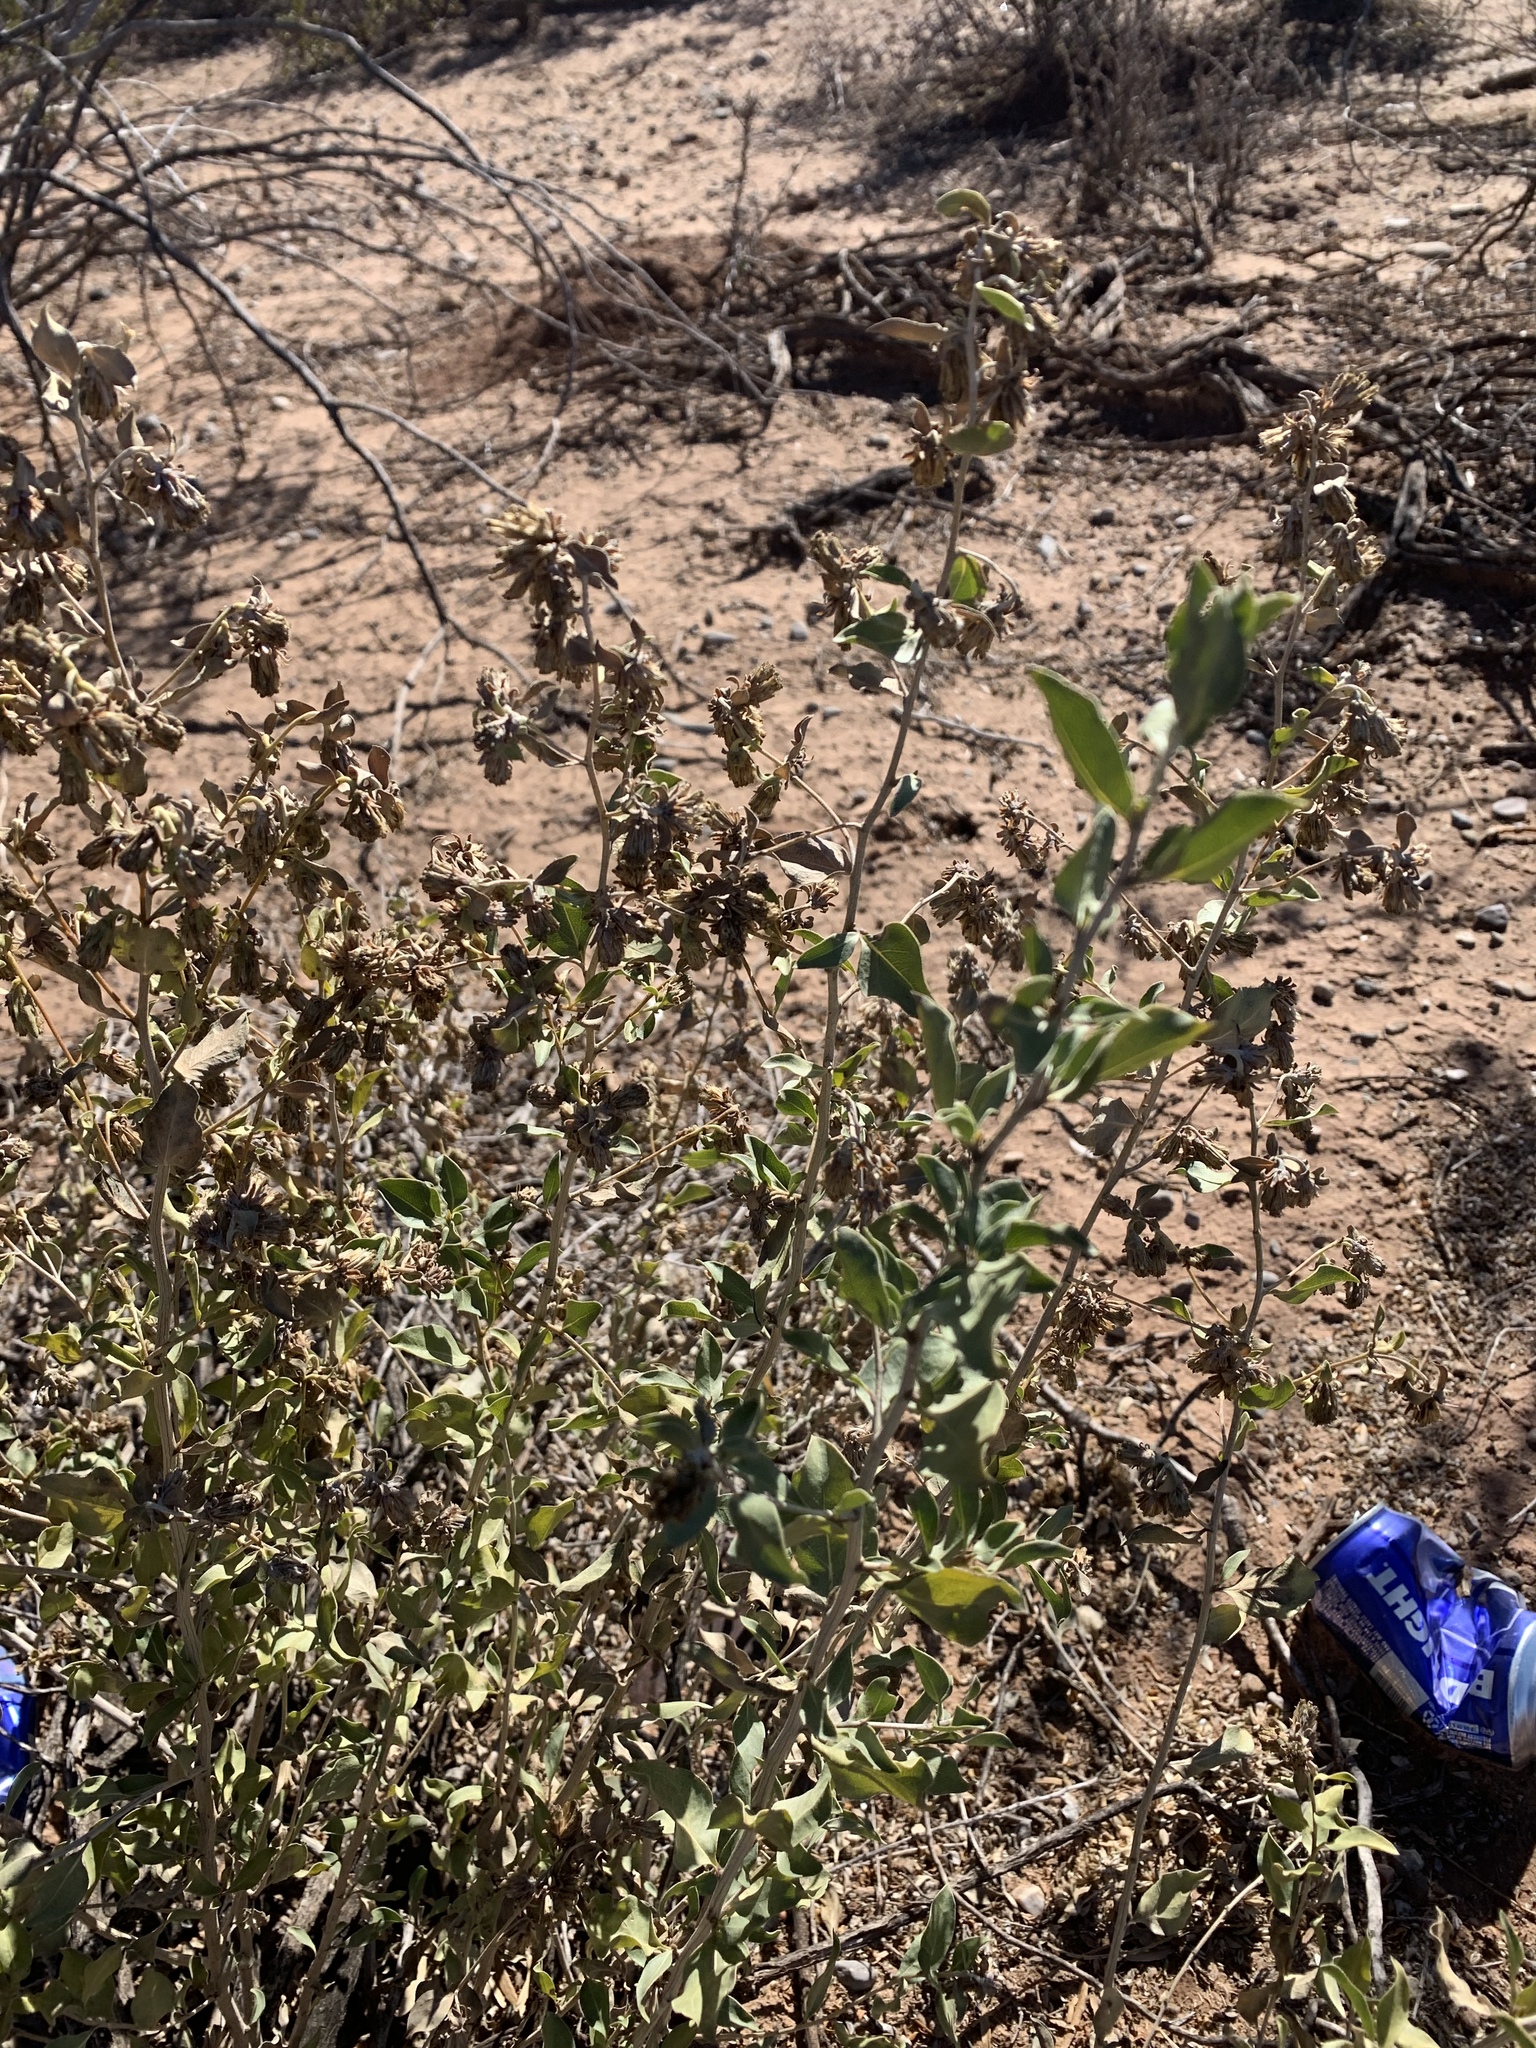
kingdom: Plantae
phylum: Tracheophyta
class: Magnoliopsida
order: Asterales
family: Asteraceae
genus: Flourensia
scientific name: Flourensia cernua
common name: Varnishbush
